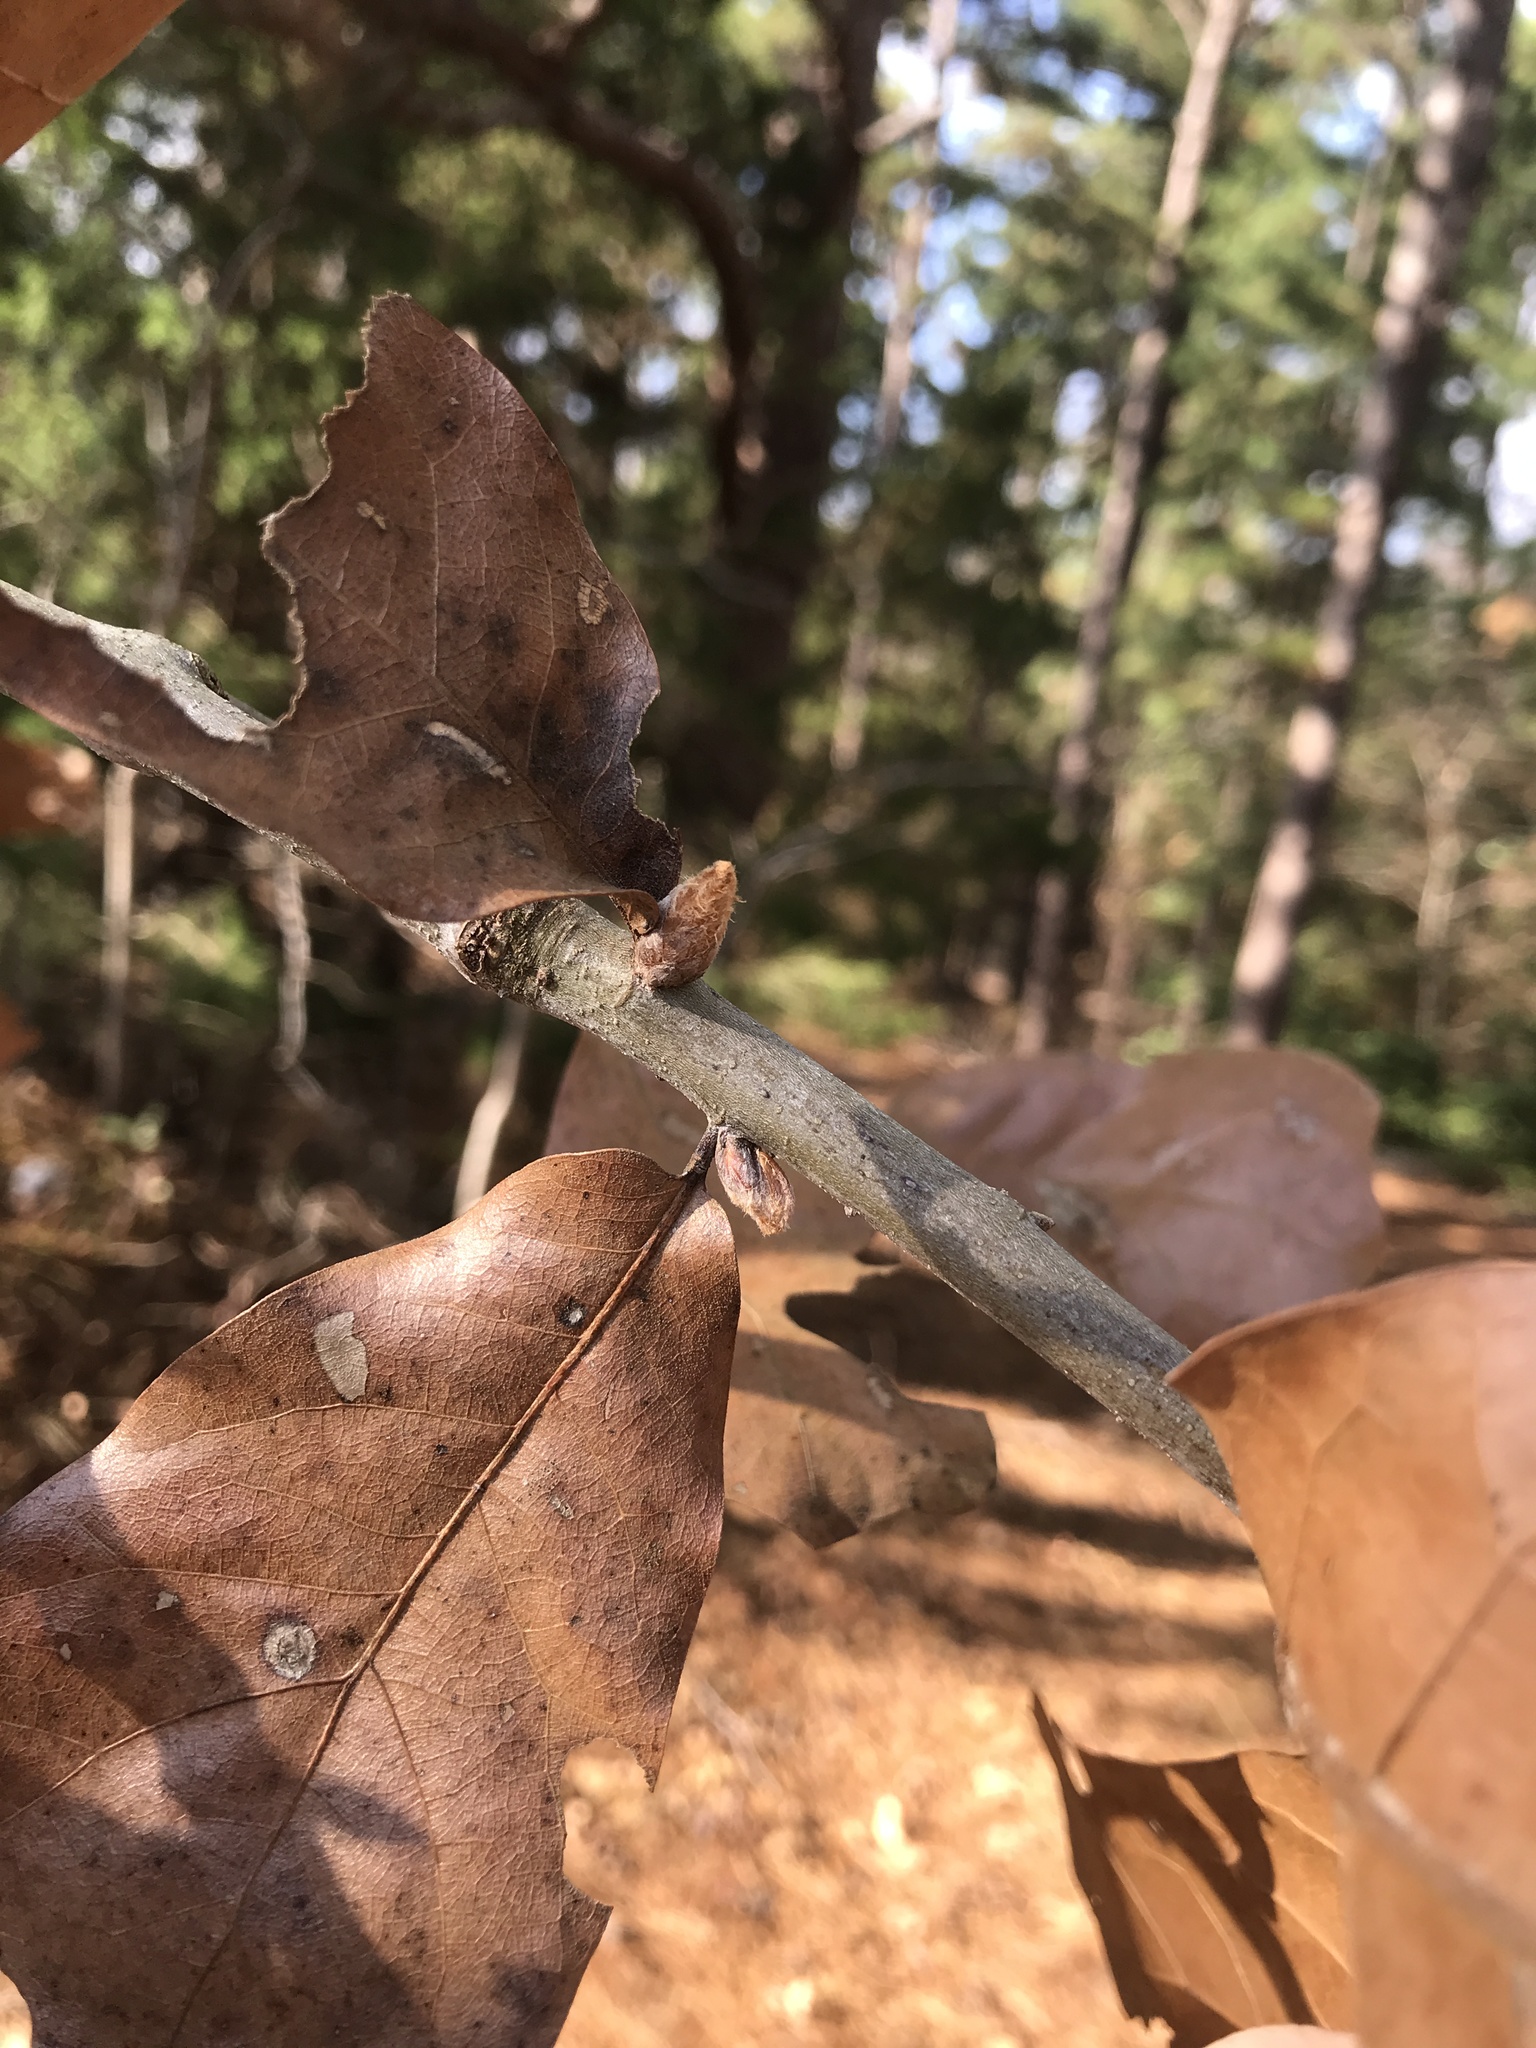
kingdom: Plantae
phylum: Tracheophyta
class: Magnoliopsida
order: Fagales
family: Fagaceae
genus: Quercus
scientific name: Quercus marilandica
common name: Blackjack oak
